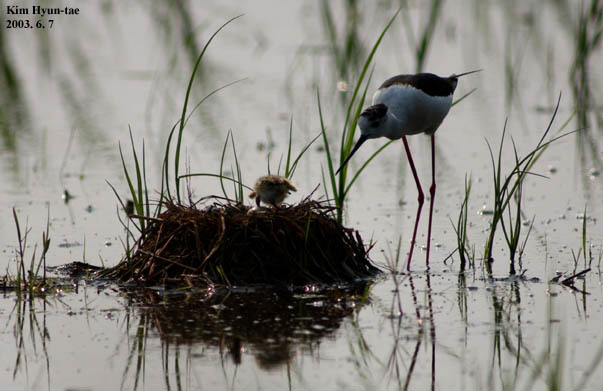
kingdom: Animalia
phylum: Chordata
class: Aves
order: Charadriiformes
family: Recurvirostridae
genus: Himantopus
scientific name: Himantopus himantopus
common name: Black-winged stilt
